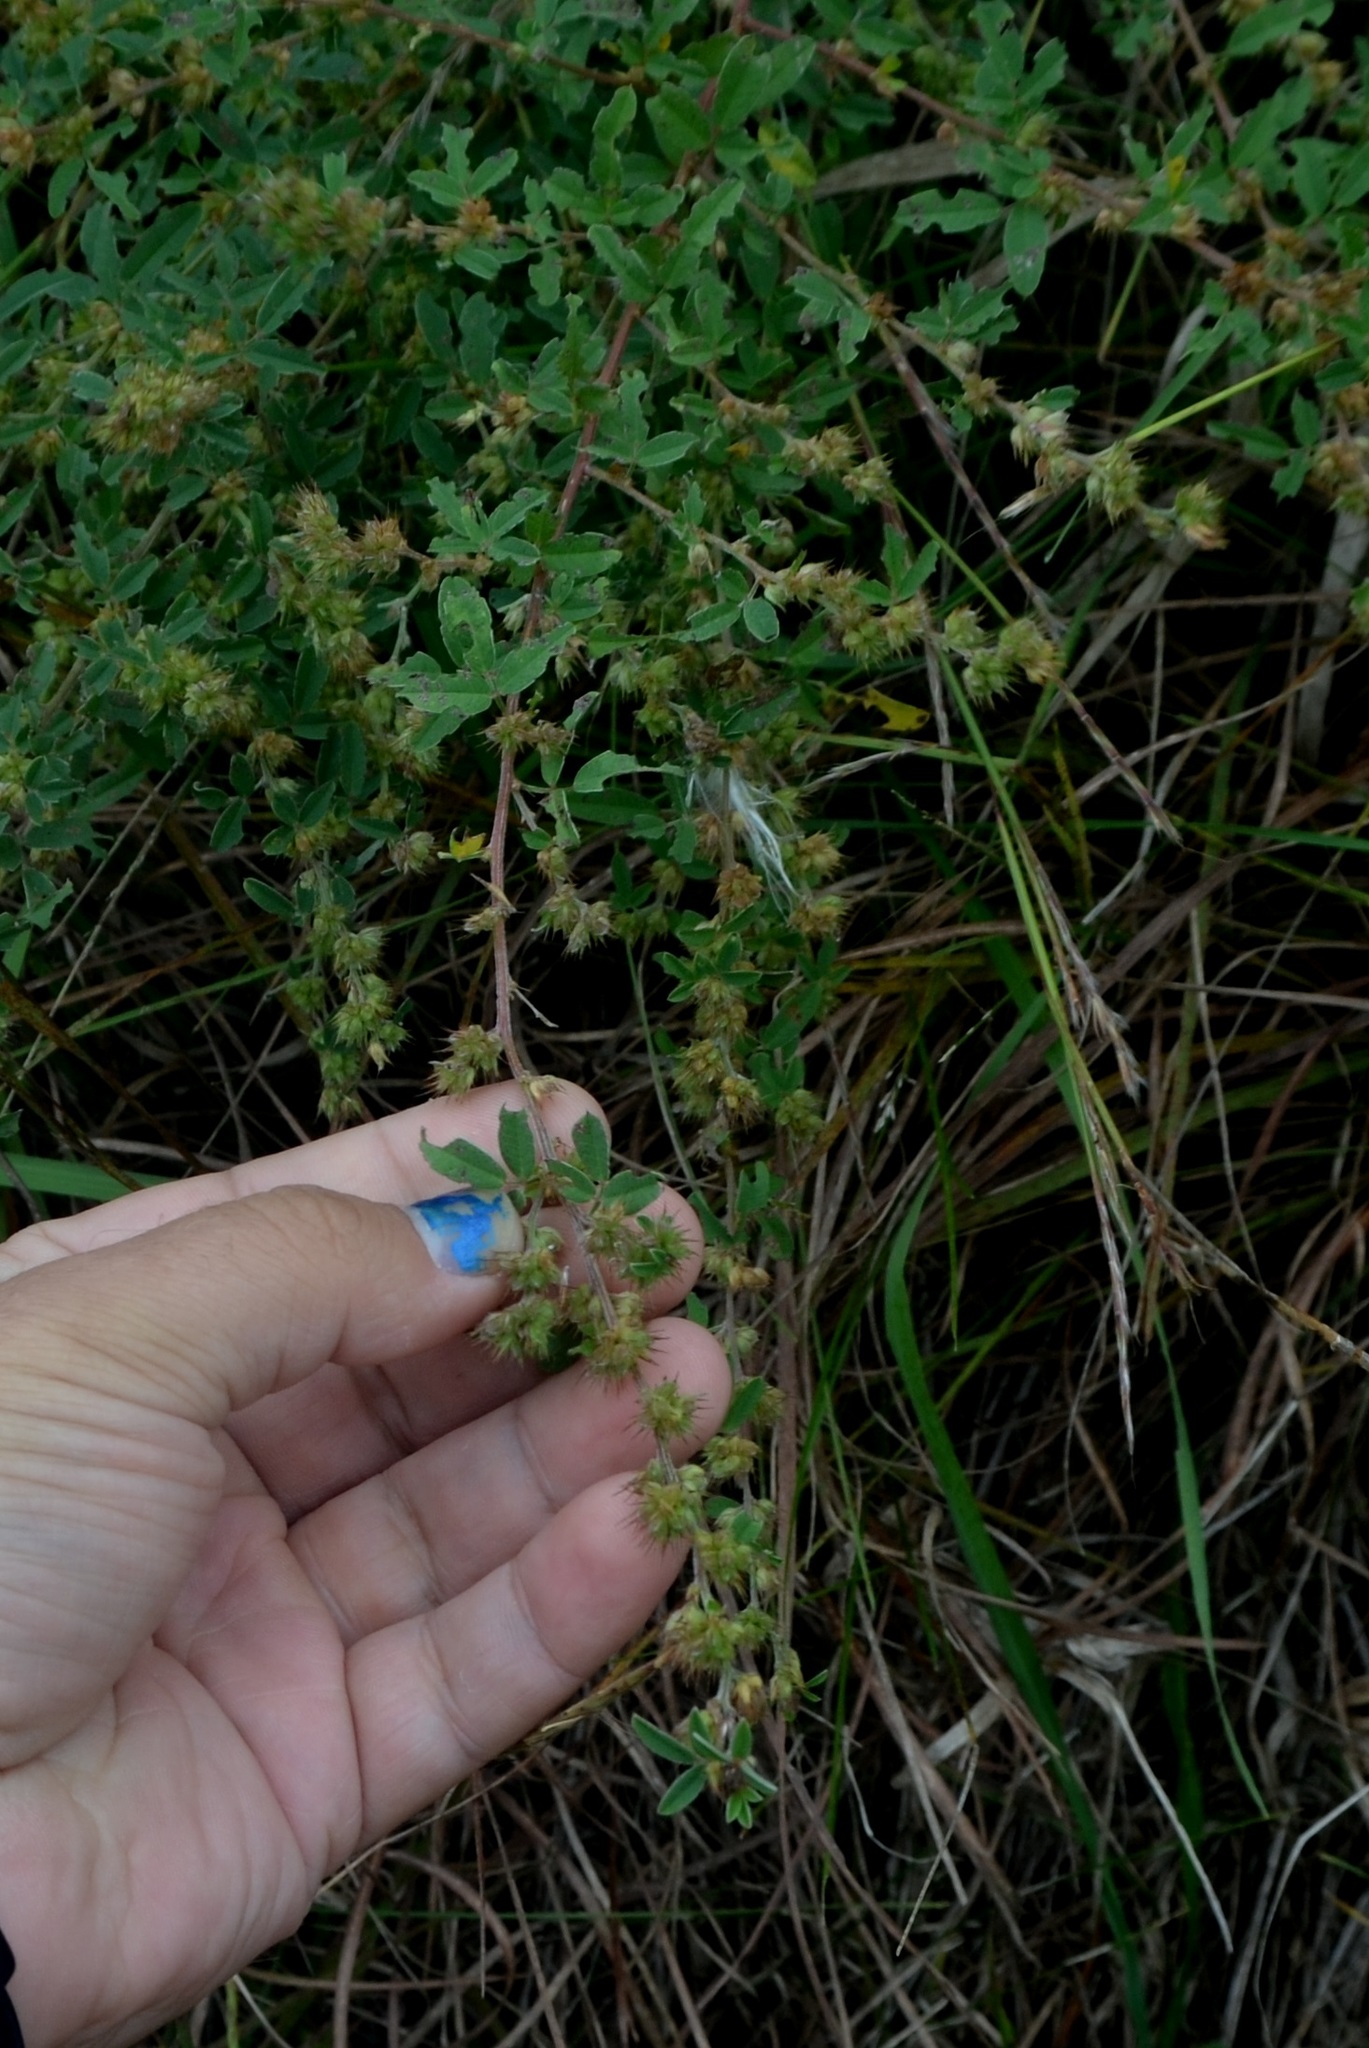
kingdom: Plantae
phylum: Tracheophyta
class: Magnoliopsida
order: Fabales
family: Fabaceae
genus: Lespedeza
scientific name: Lespedeza daurica
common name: Dahurian lespedeza
